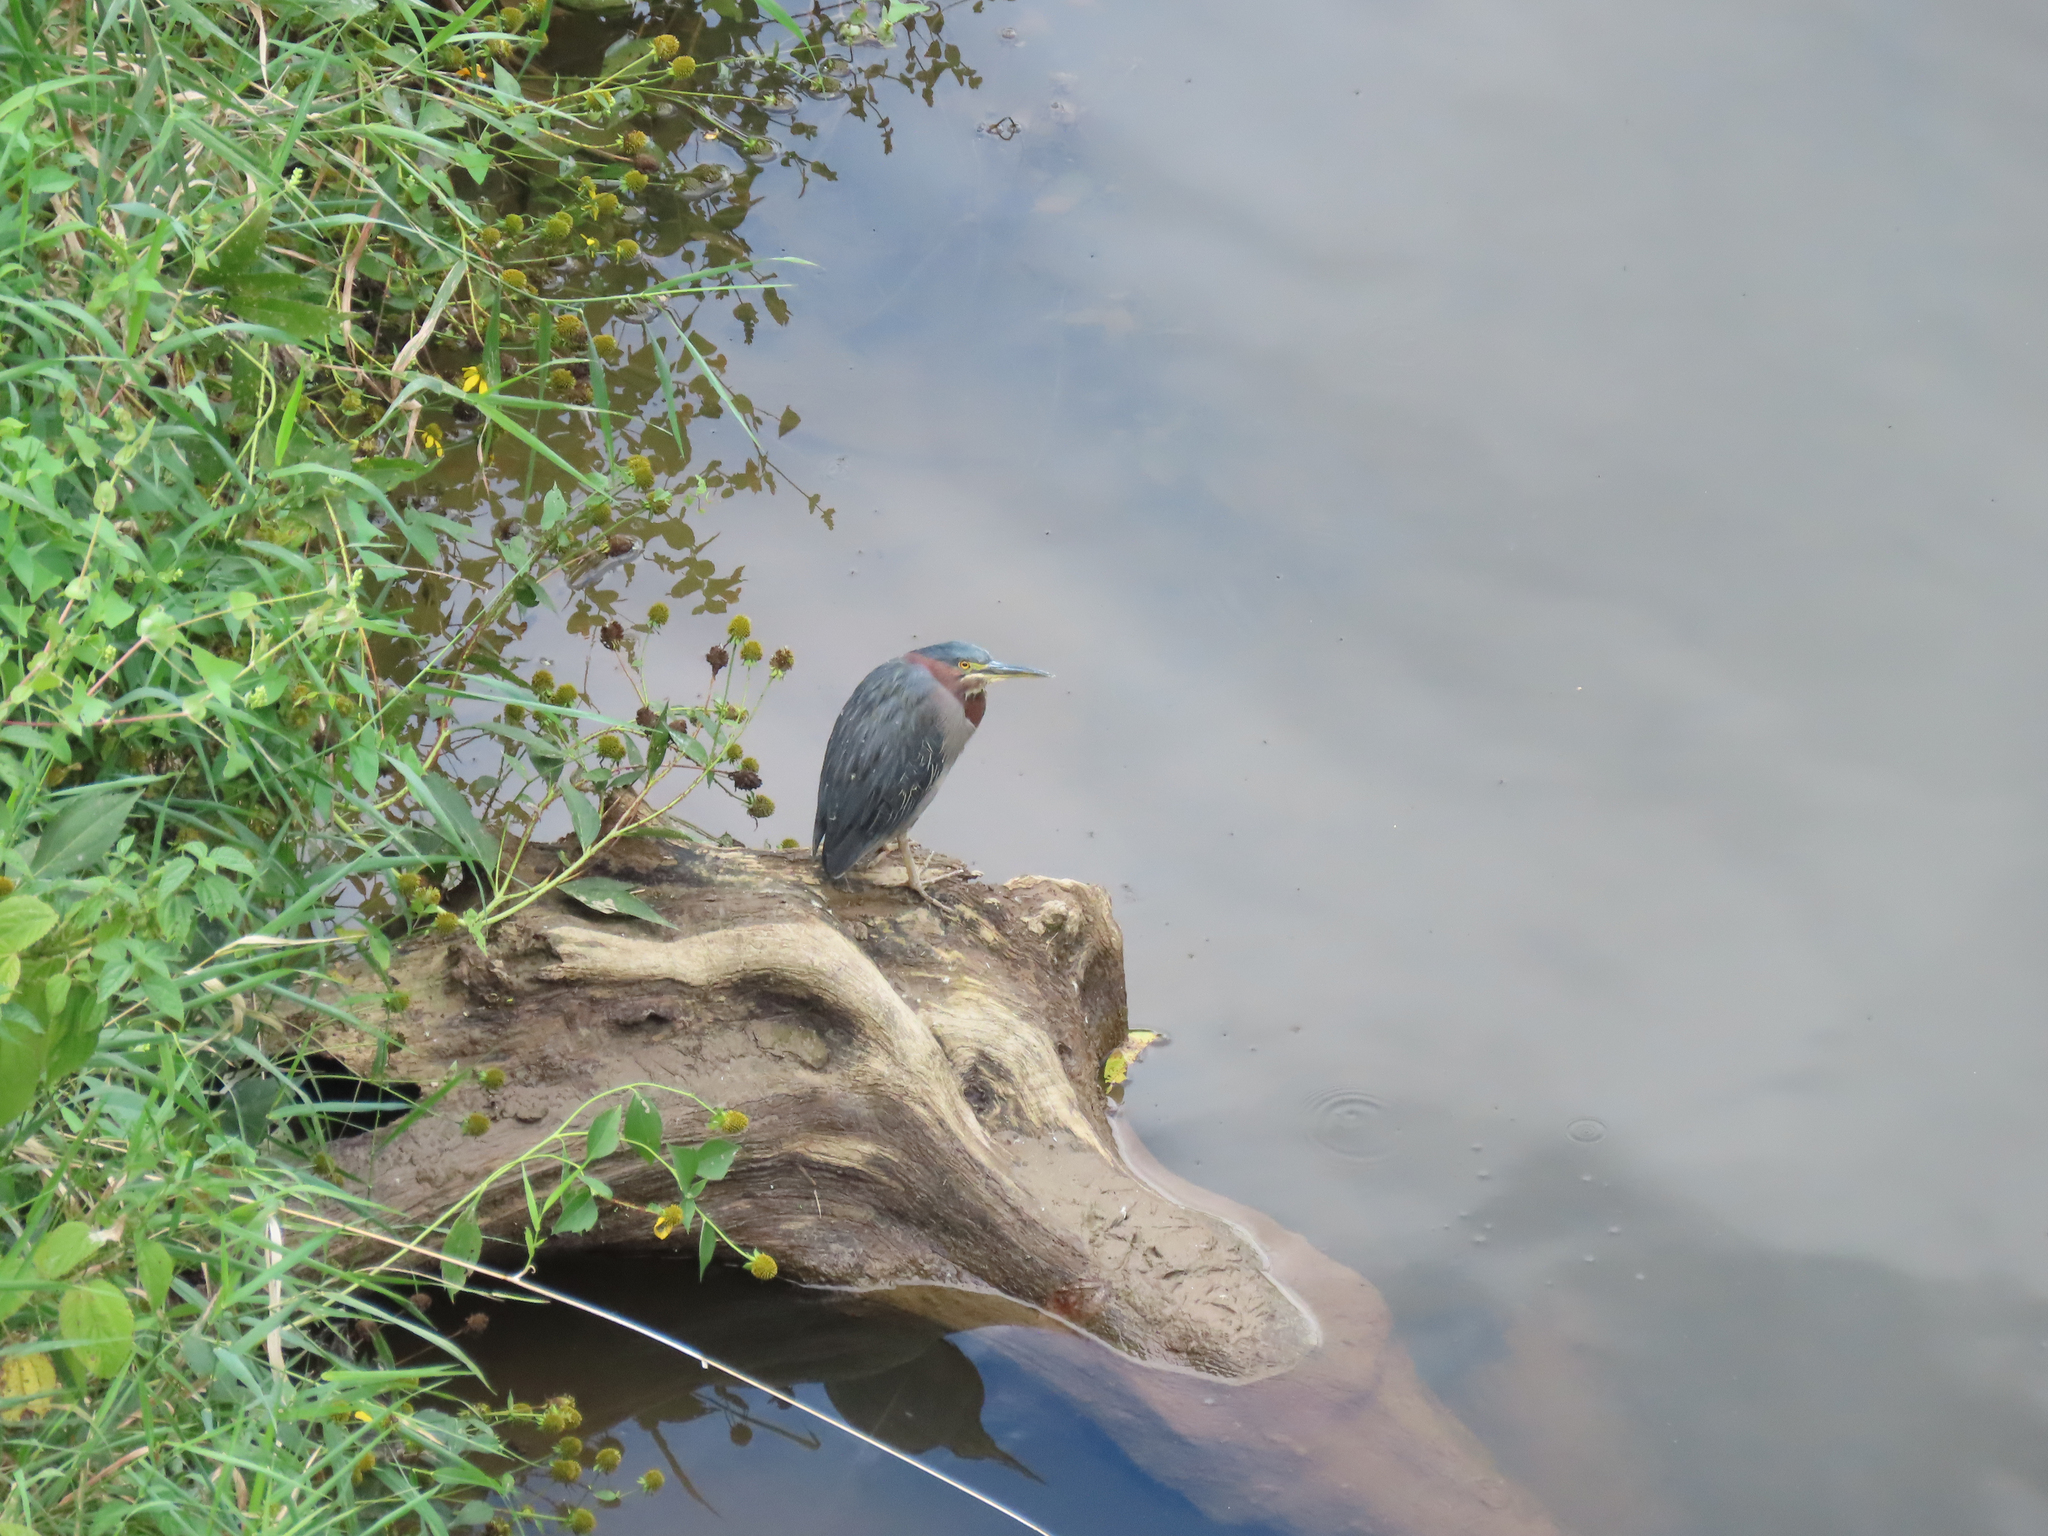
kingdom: Animalia
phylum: Chordata
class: Aves
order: Pelecaniformes
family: Ardeidae
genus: Butorides
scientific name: Butorides virescens
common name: Green heron
